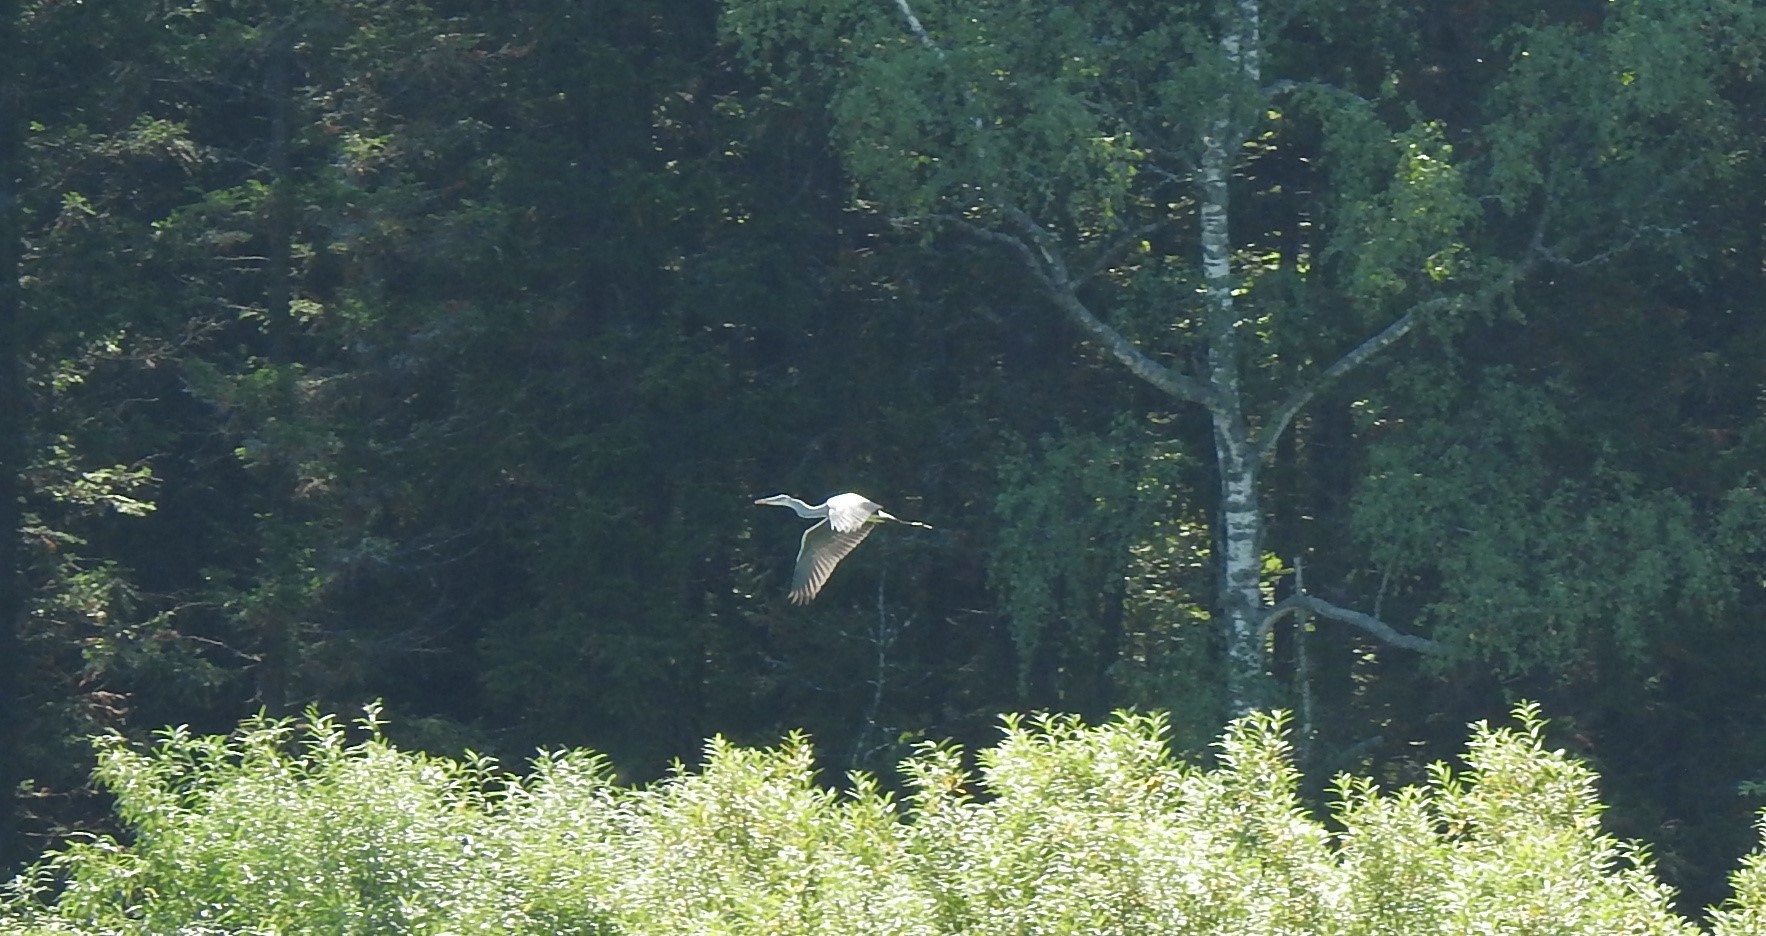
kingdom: Animalia
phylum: Chordata
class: Aves
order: Pelecaniformes
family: Ardeidae
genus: Ardea
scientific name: Ardea cinerea
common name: Grey heron
